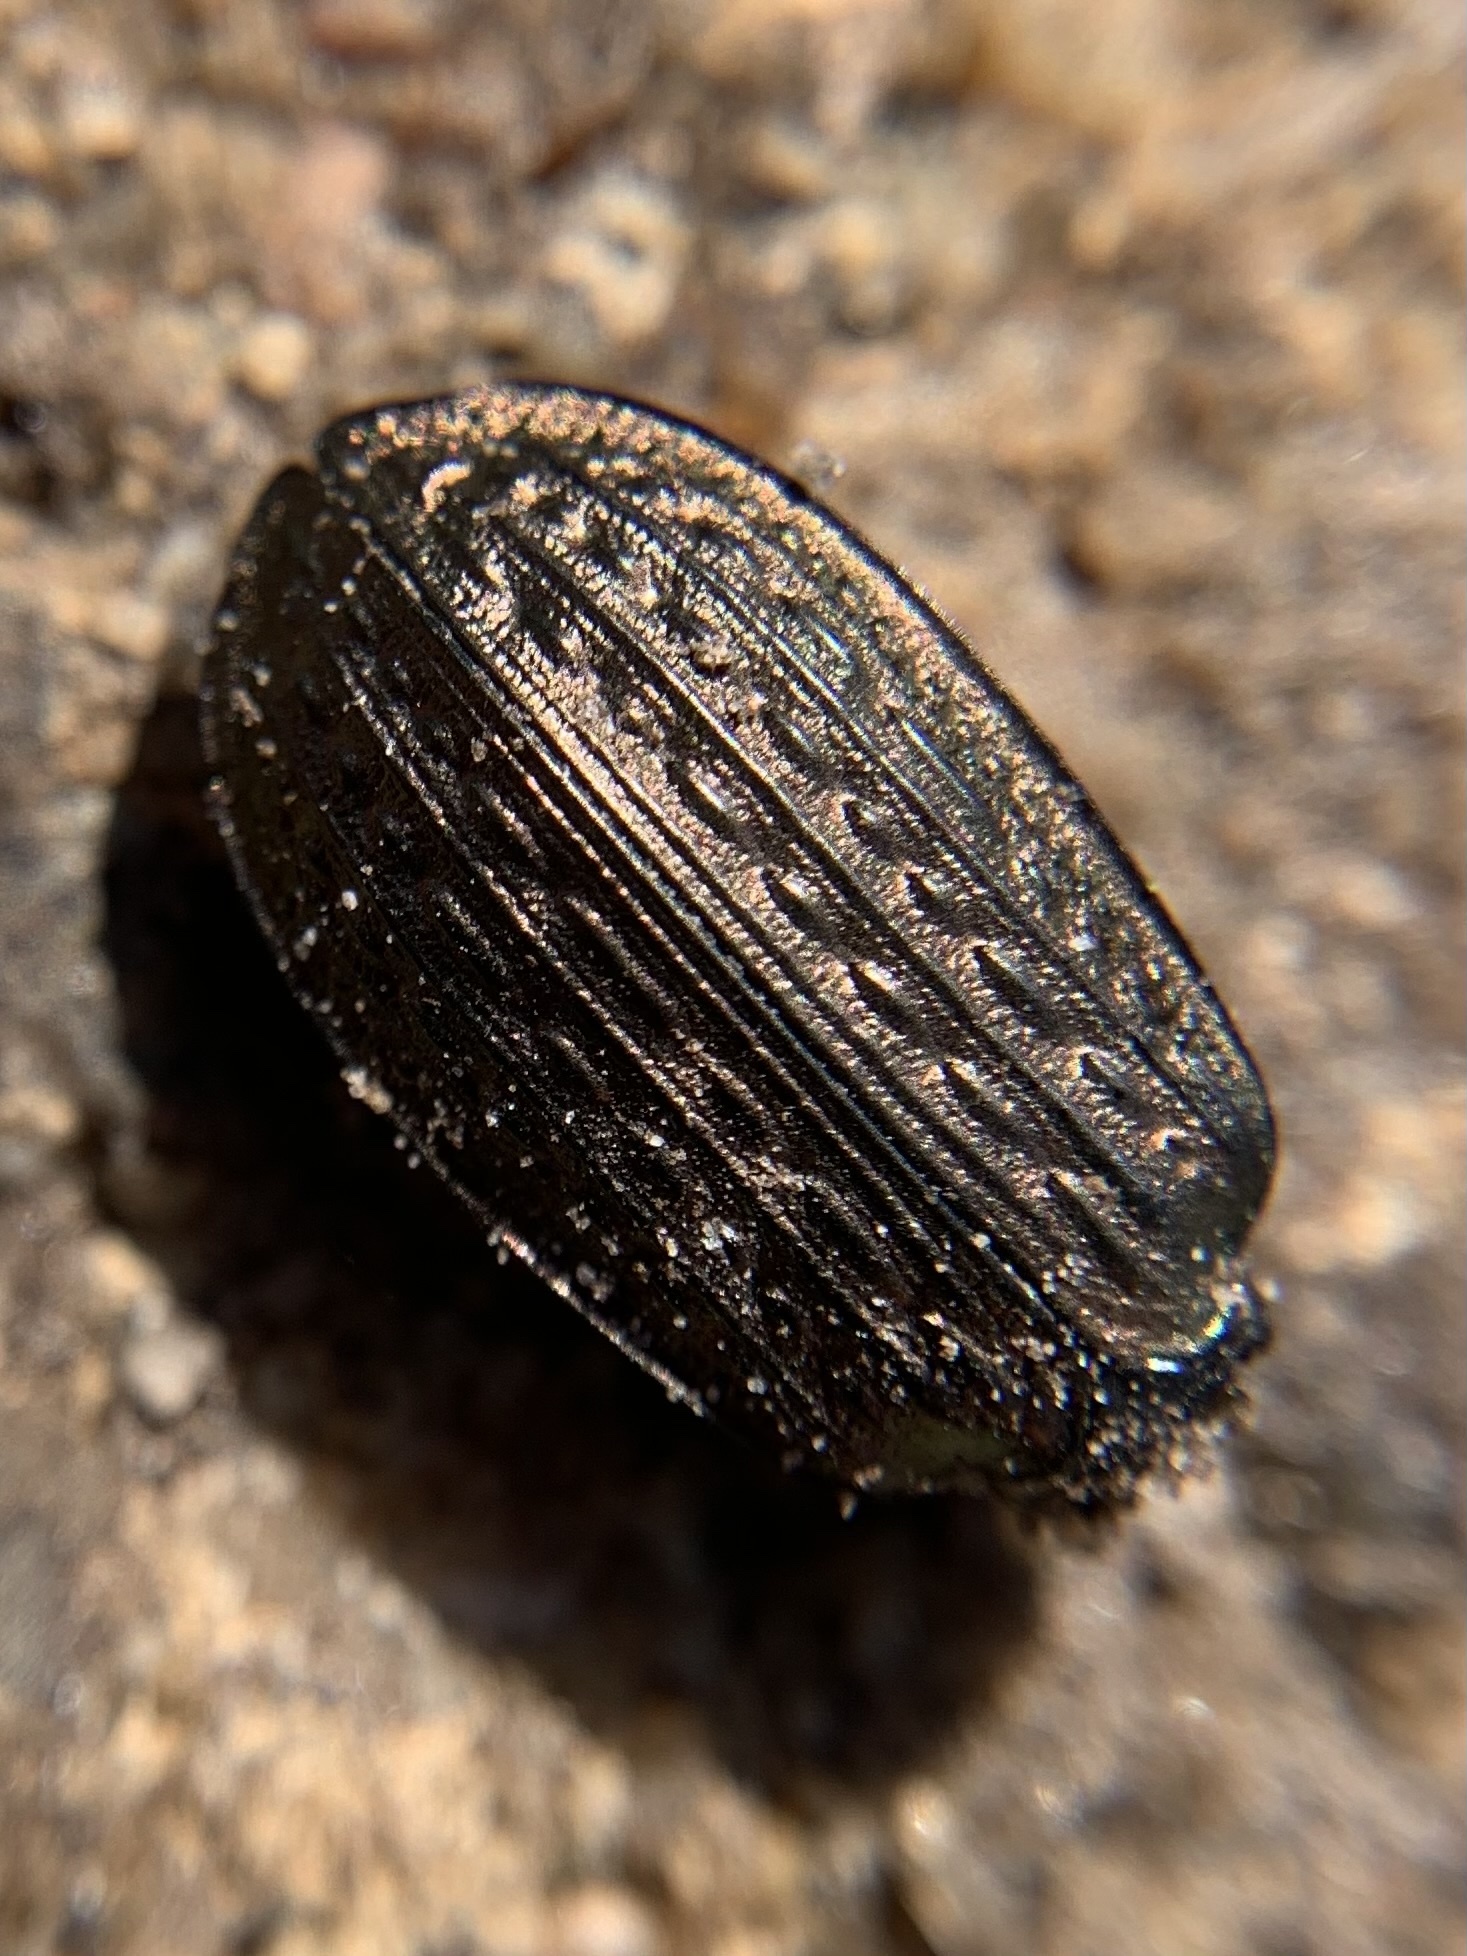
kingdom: Animalia
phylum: Arthropoda
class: Insecta
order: Coleoptera
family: Carabidae
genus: Carabus
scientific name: Carabus granulatus
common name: Granulate ground beetle
